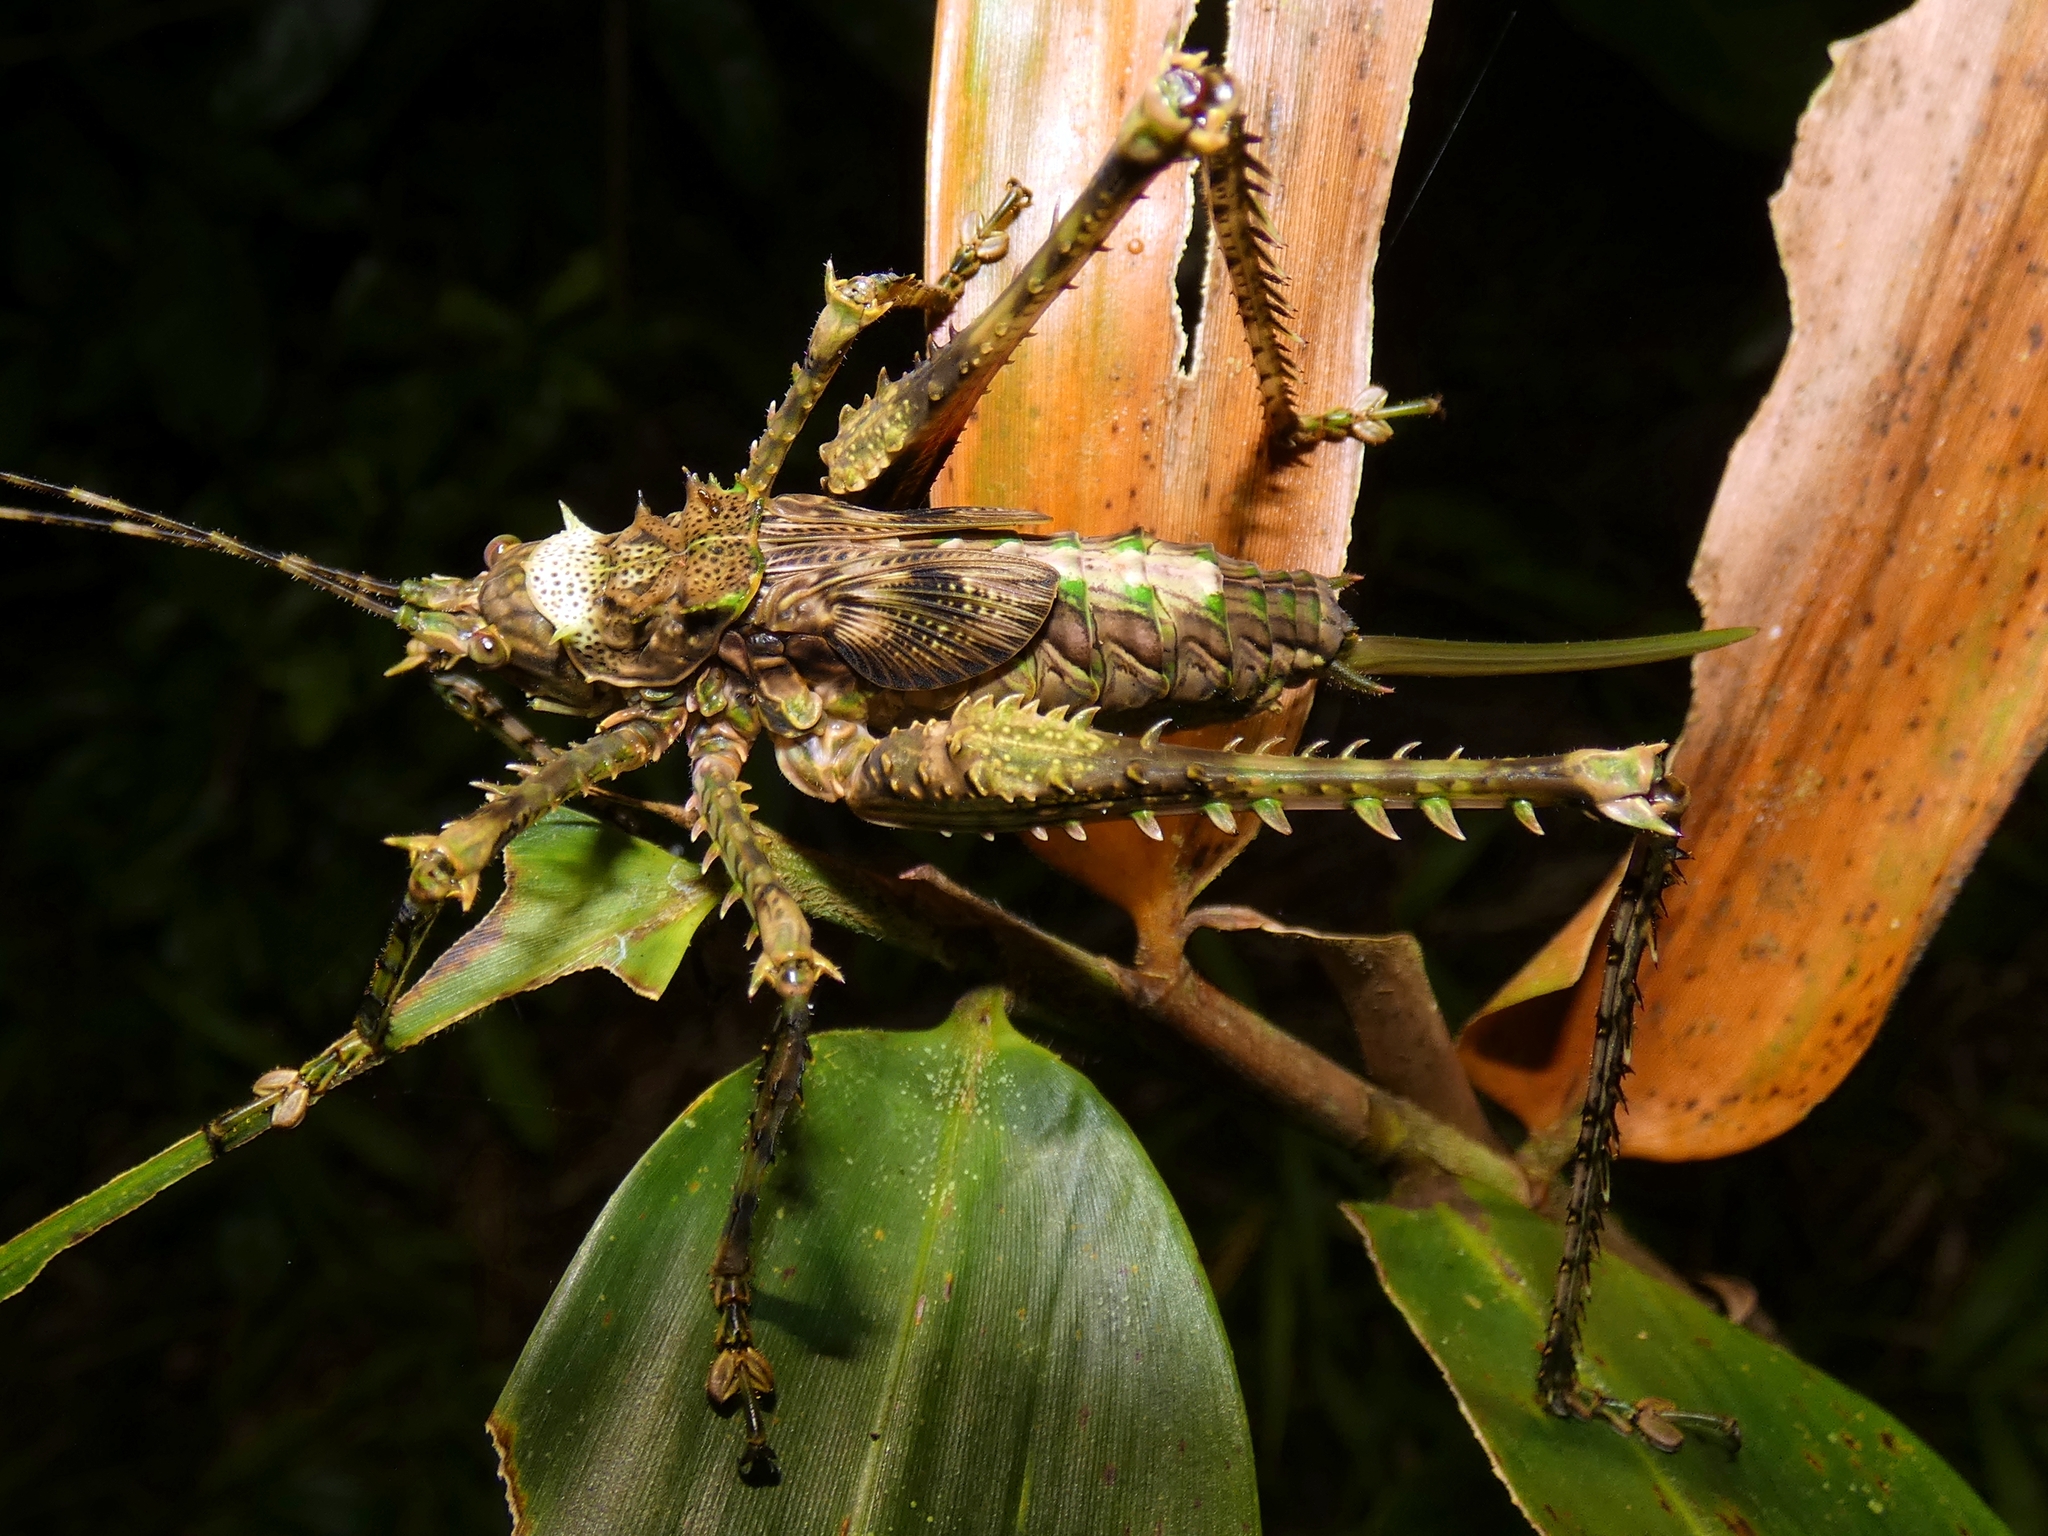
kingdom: Animalia
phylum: Arthropoda
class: Insecta
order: Orthoptera
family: Tettigoniidae
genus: Phricta
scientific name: Phricta spinosa
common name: Giant spiny forest katydid
